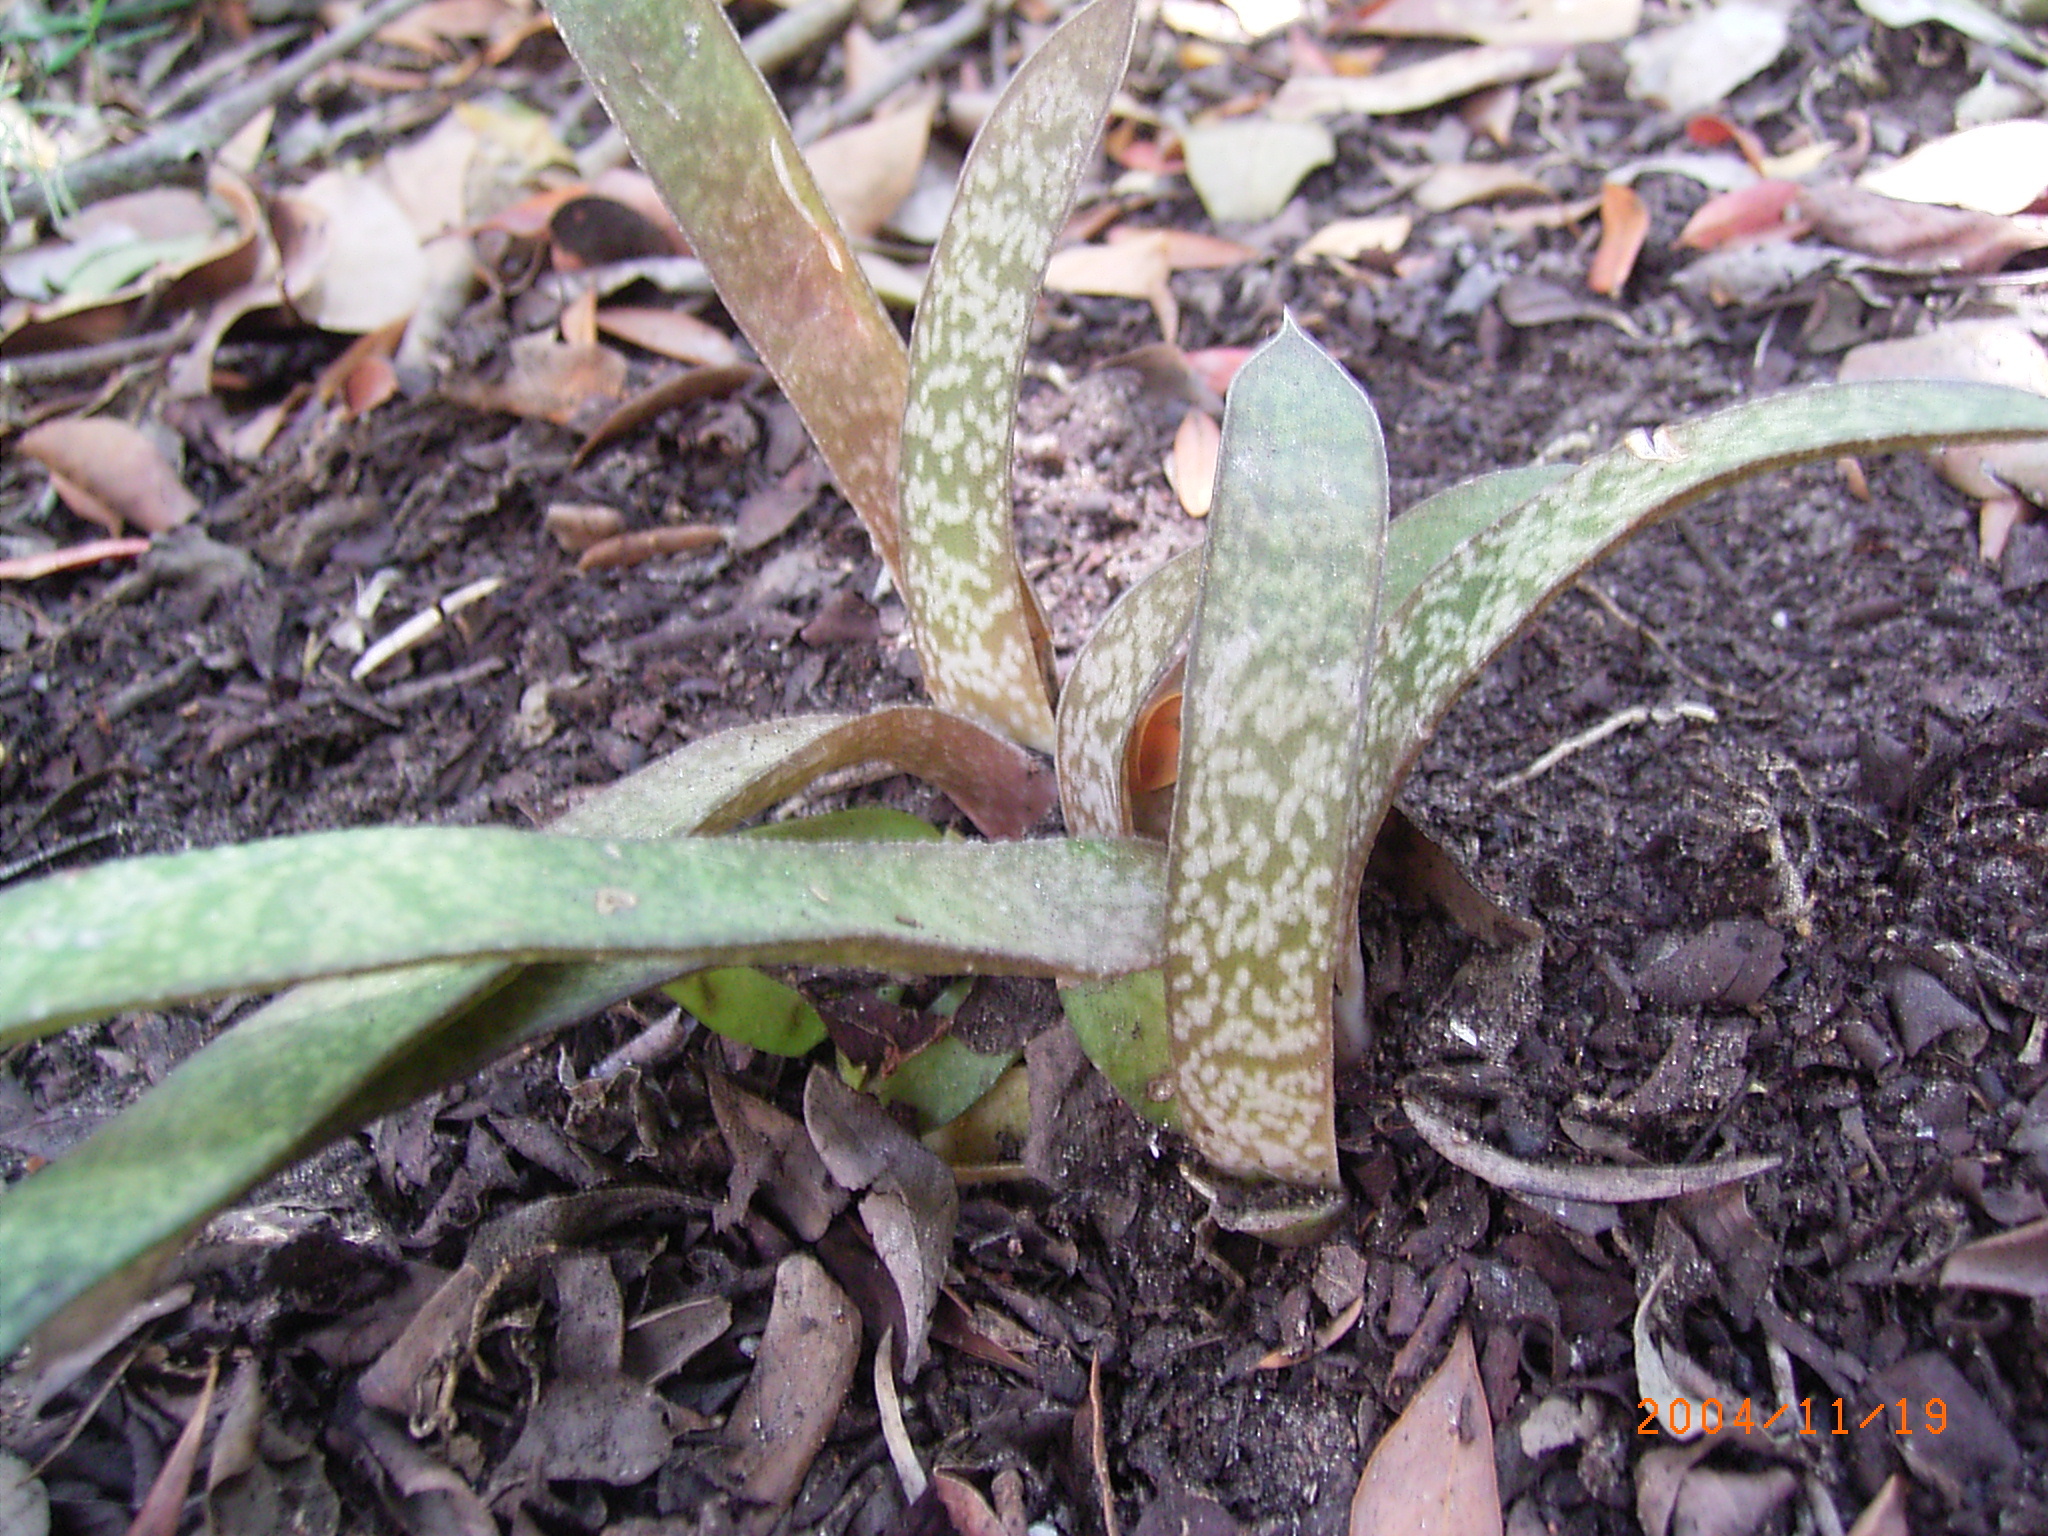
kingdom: Plantae
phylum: Tracheophyta
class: Liliopsida
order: Asparagales
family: Asphodelaceae
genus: Gasteria
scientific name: Gasteria acinacifolia
